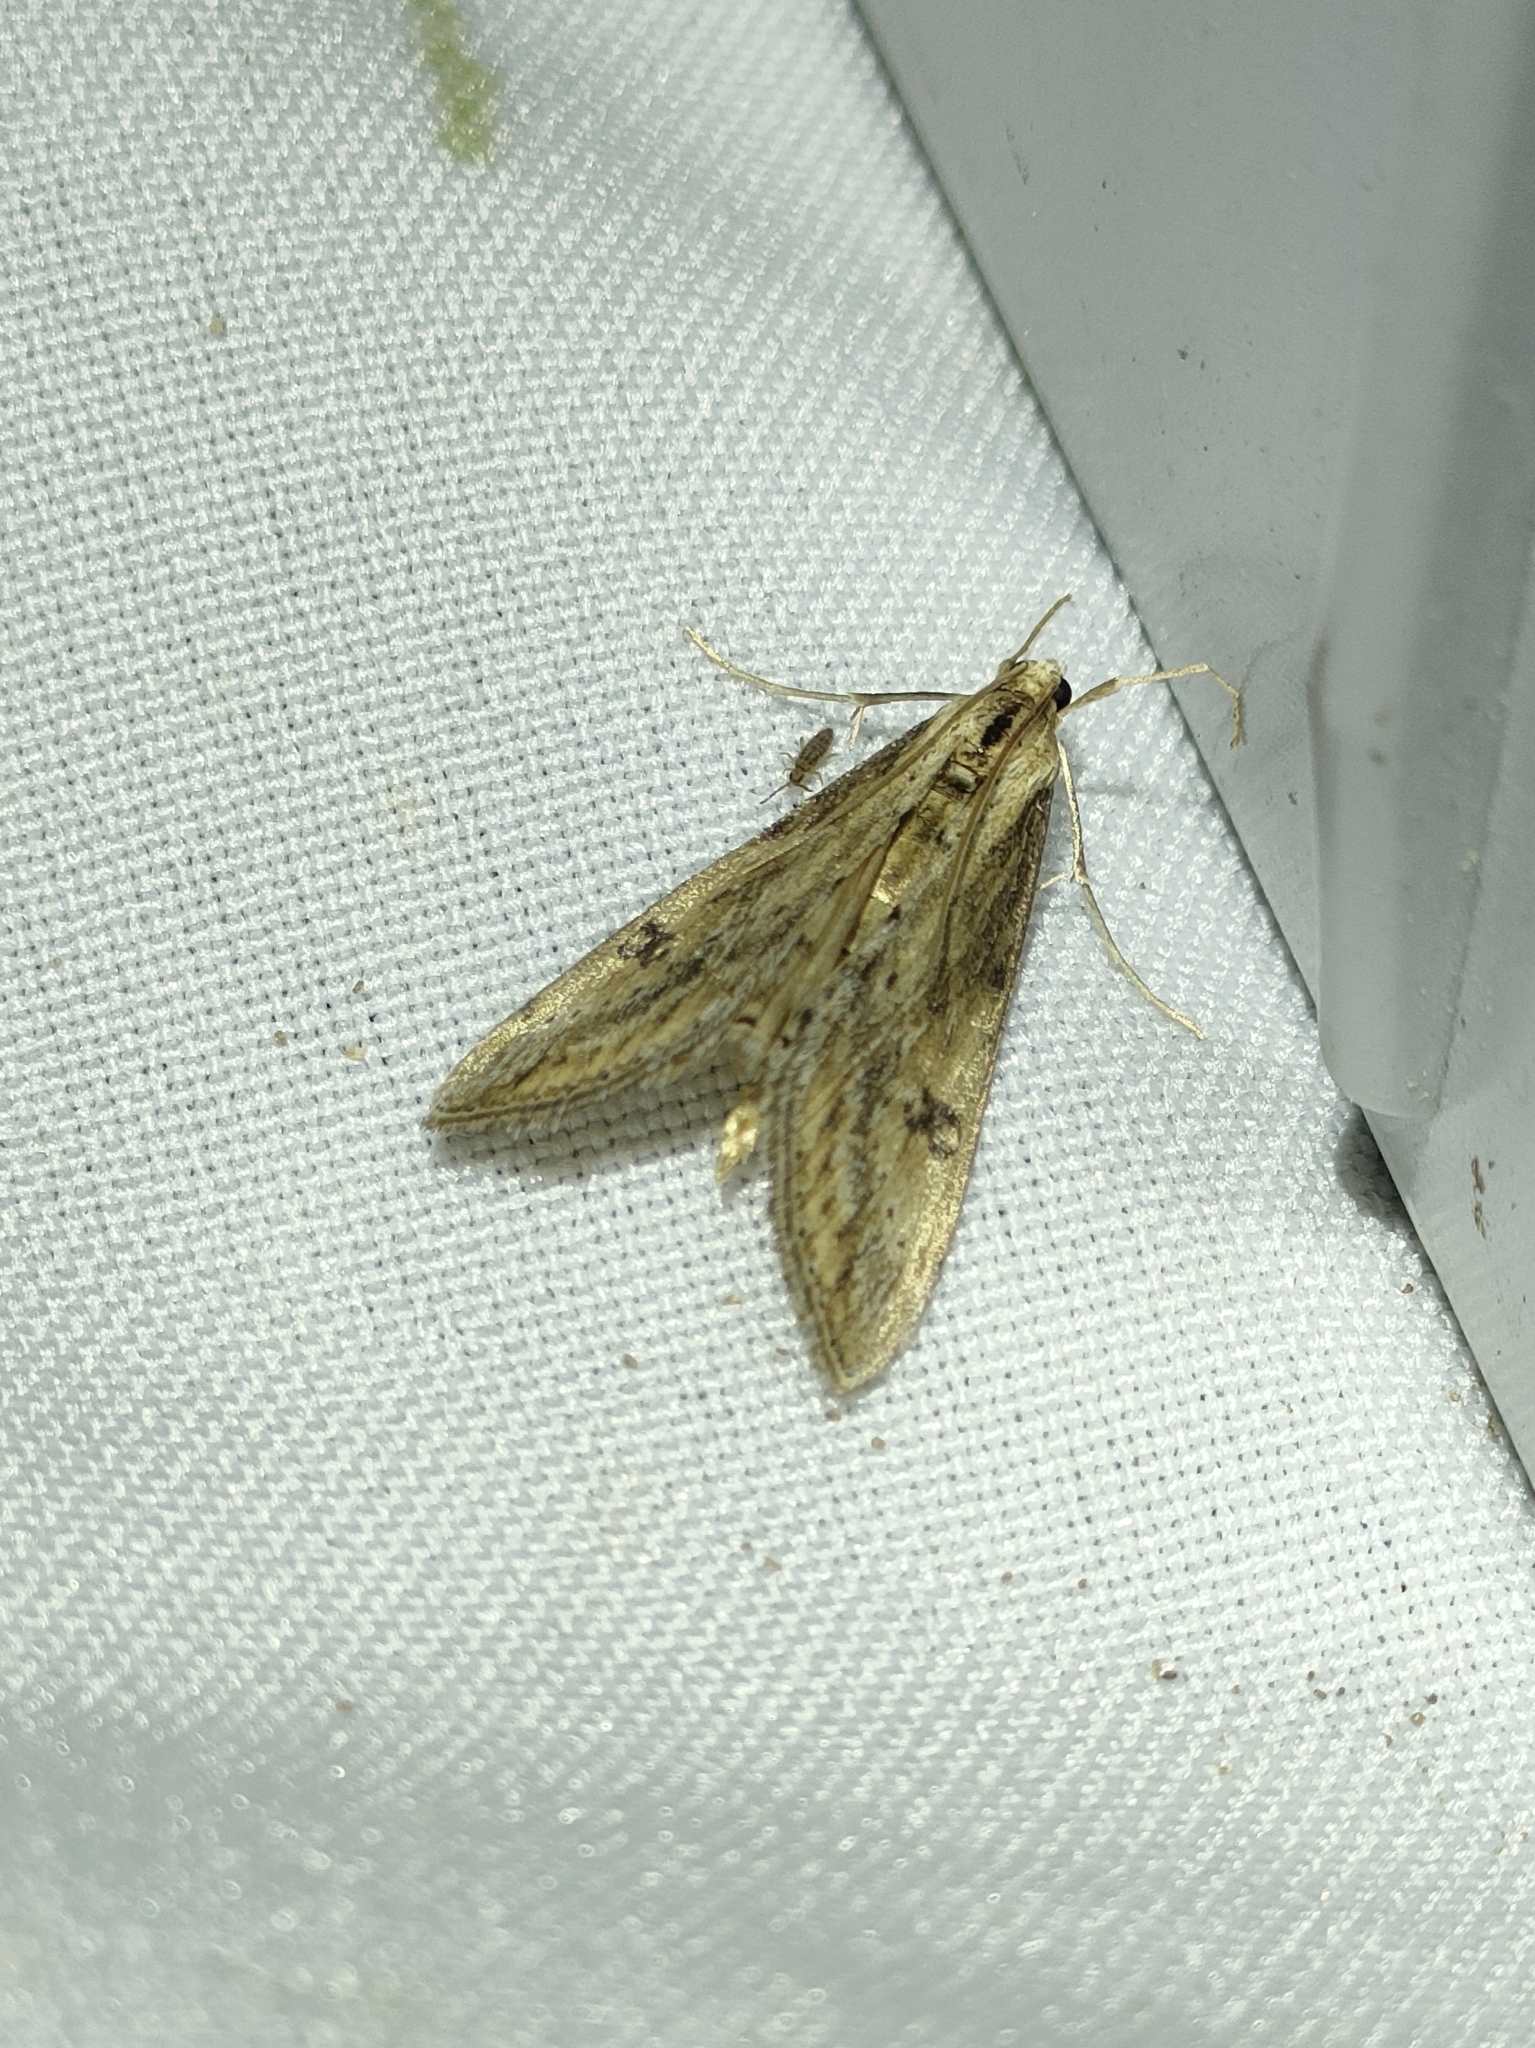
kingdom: Animalia
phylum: Arthropoda
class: Insecta
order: Lepidoptera
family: Crambidae
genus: Evergestis
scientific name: Evergestis isatidalis
